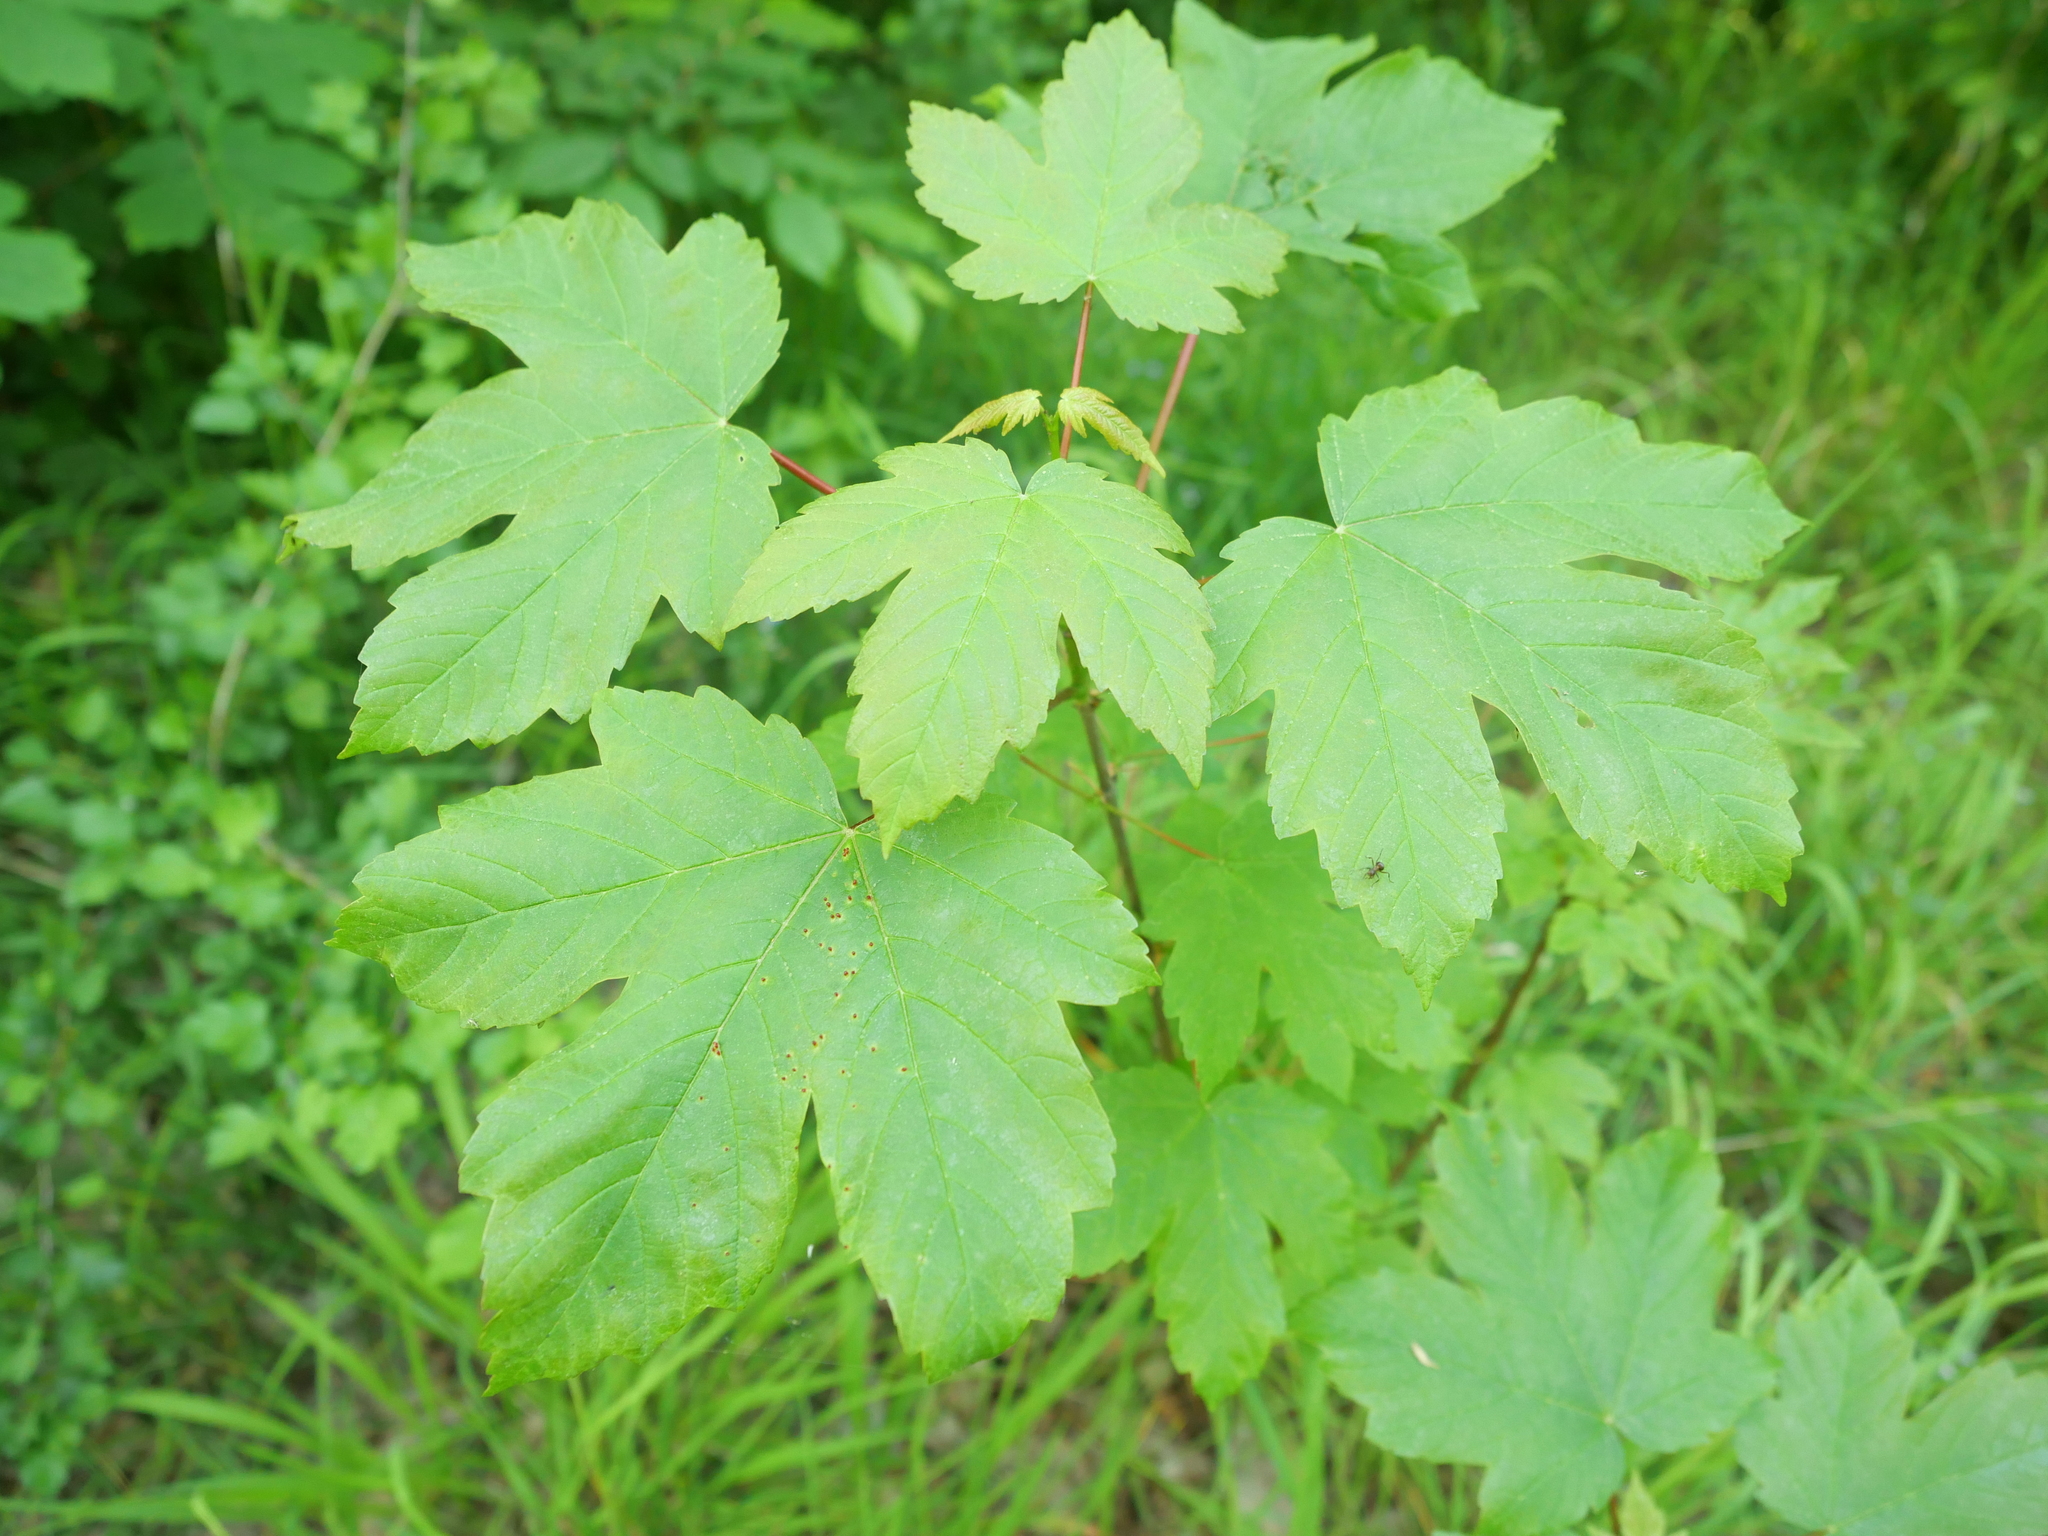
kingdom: Plantae
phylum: Tracheophyta
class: Magnoliopsida
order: Sapindales
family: Sapindaceae
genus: Acer
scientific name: Acer pseudoplatanus
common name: Sycamore
